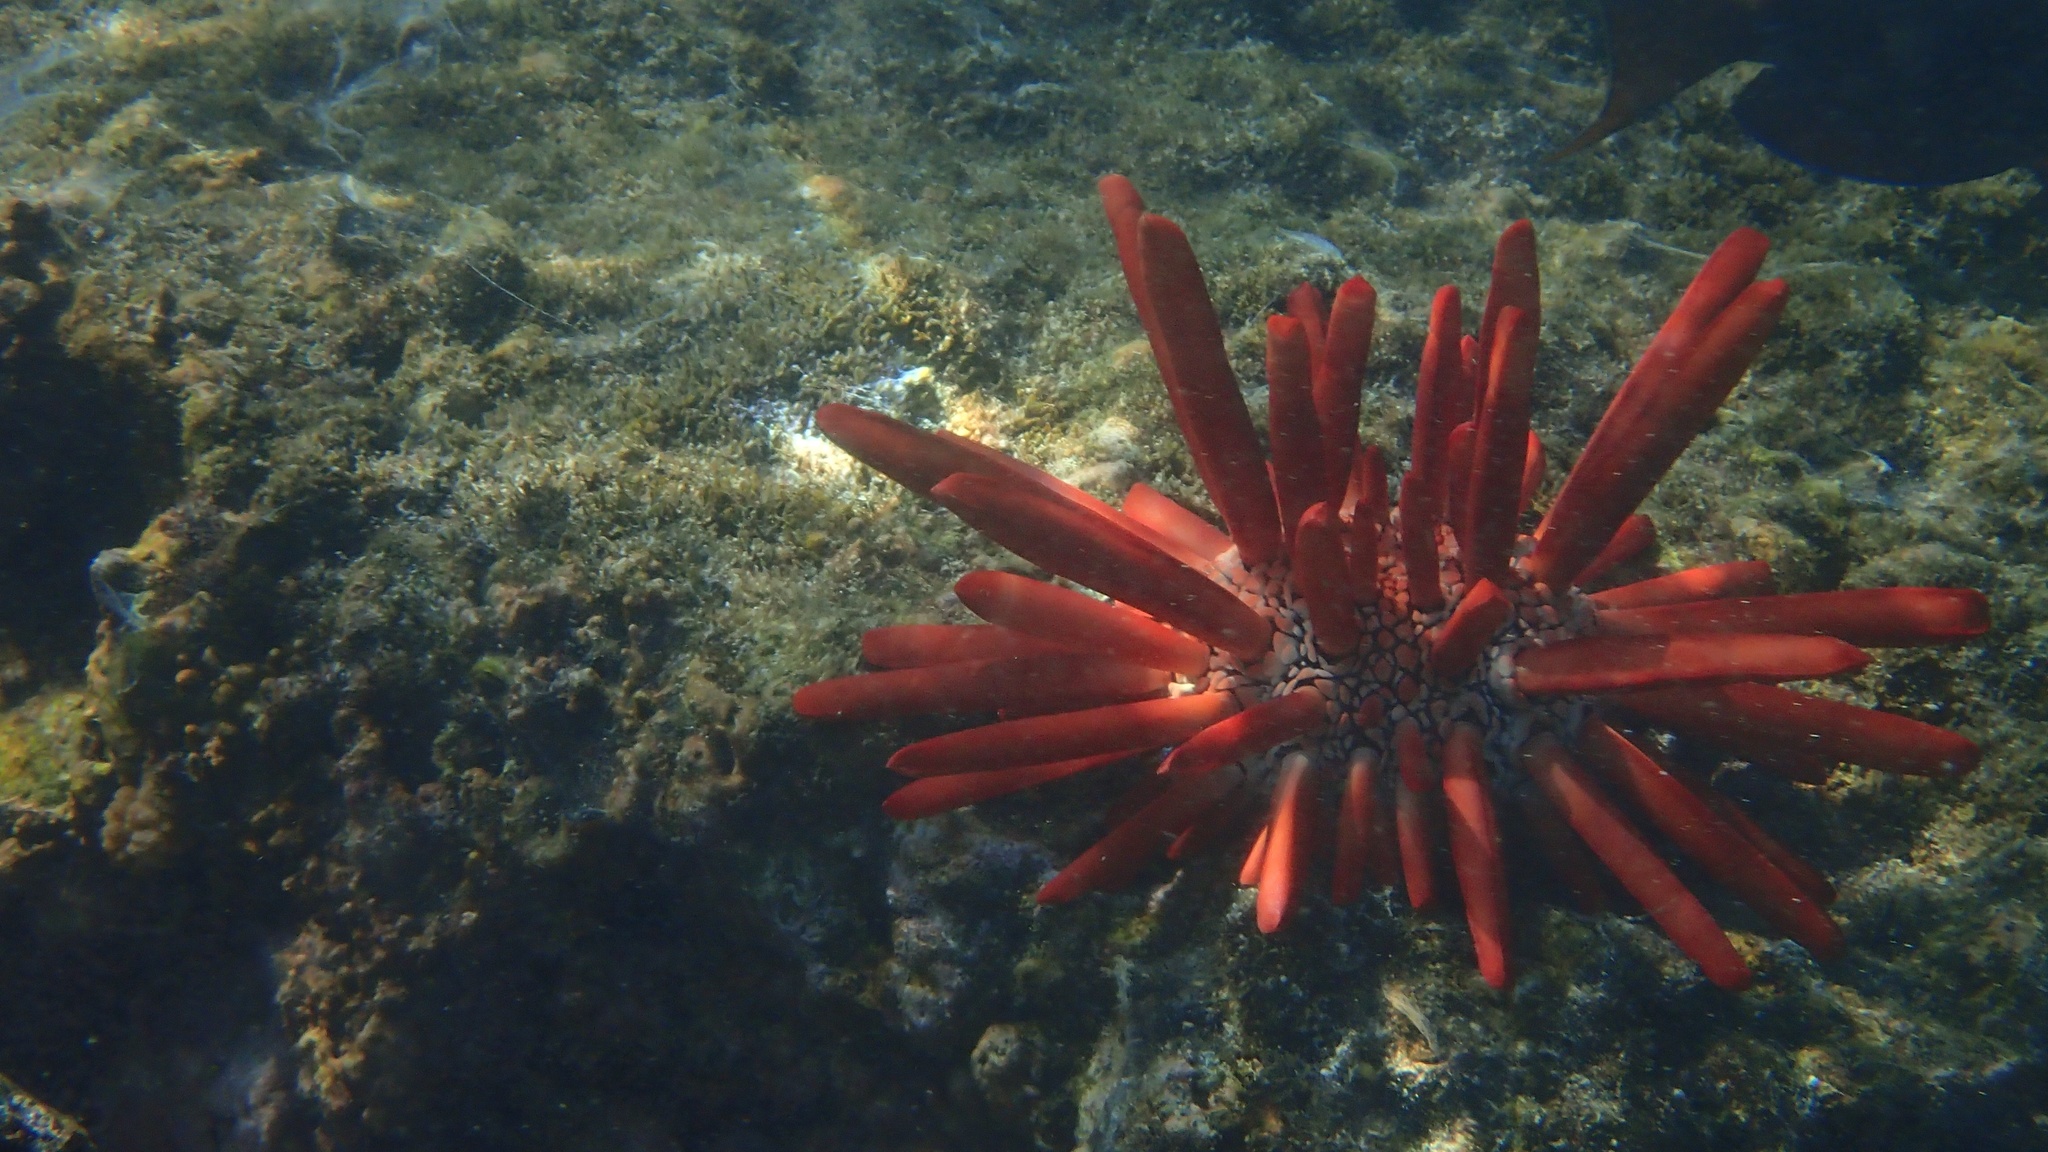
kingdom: Animalia
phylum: Echinodermata
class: Echinoidea
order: Camarodonta
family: Echinometridae
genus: Heterocentrotus
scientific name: Heterocentrotus mamillatus
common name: Slate pencil urchin
